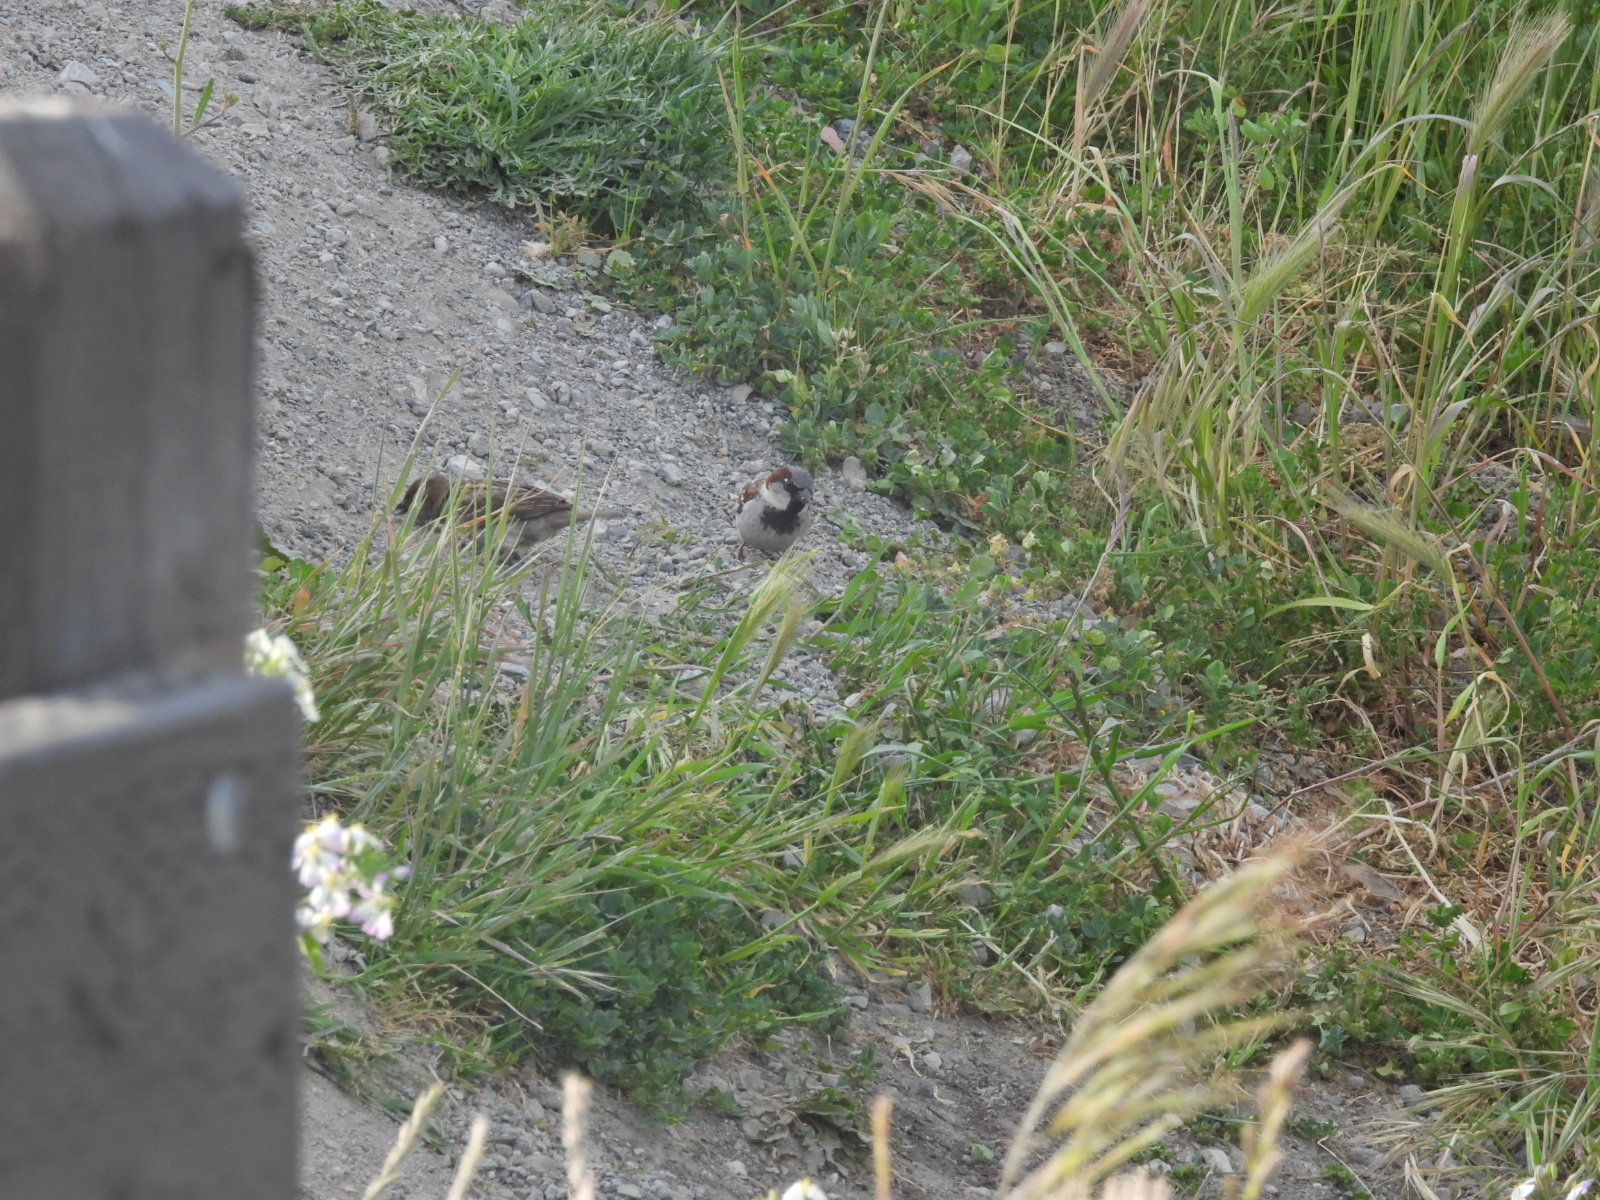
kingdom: Animalia
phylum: Chordata
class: Aves
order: Passeriformes
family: Passeridae
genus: Passer
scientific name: Passer domesticus
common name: House sparrow
